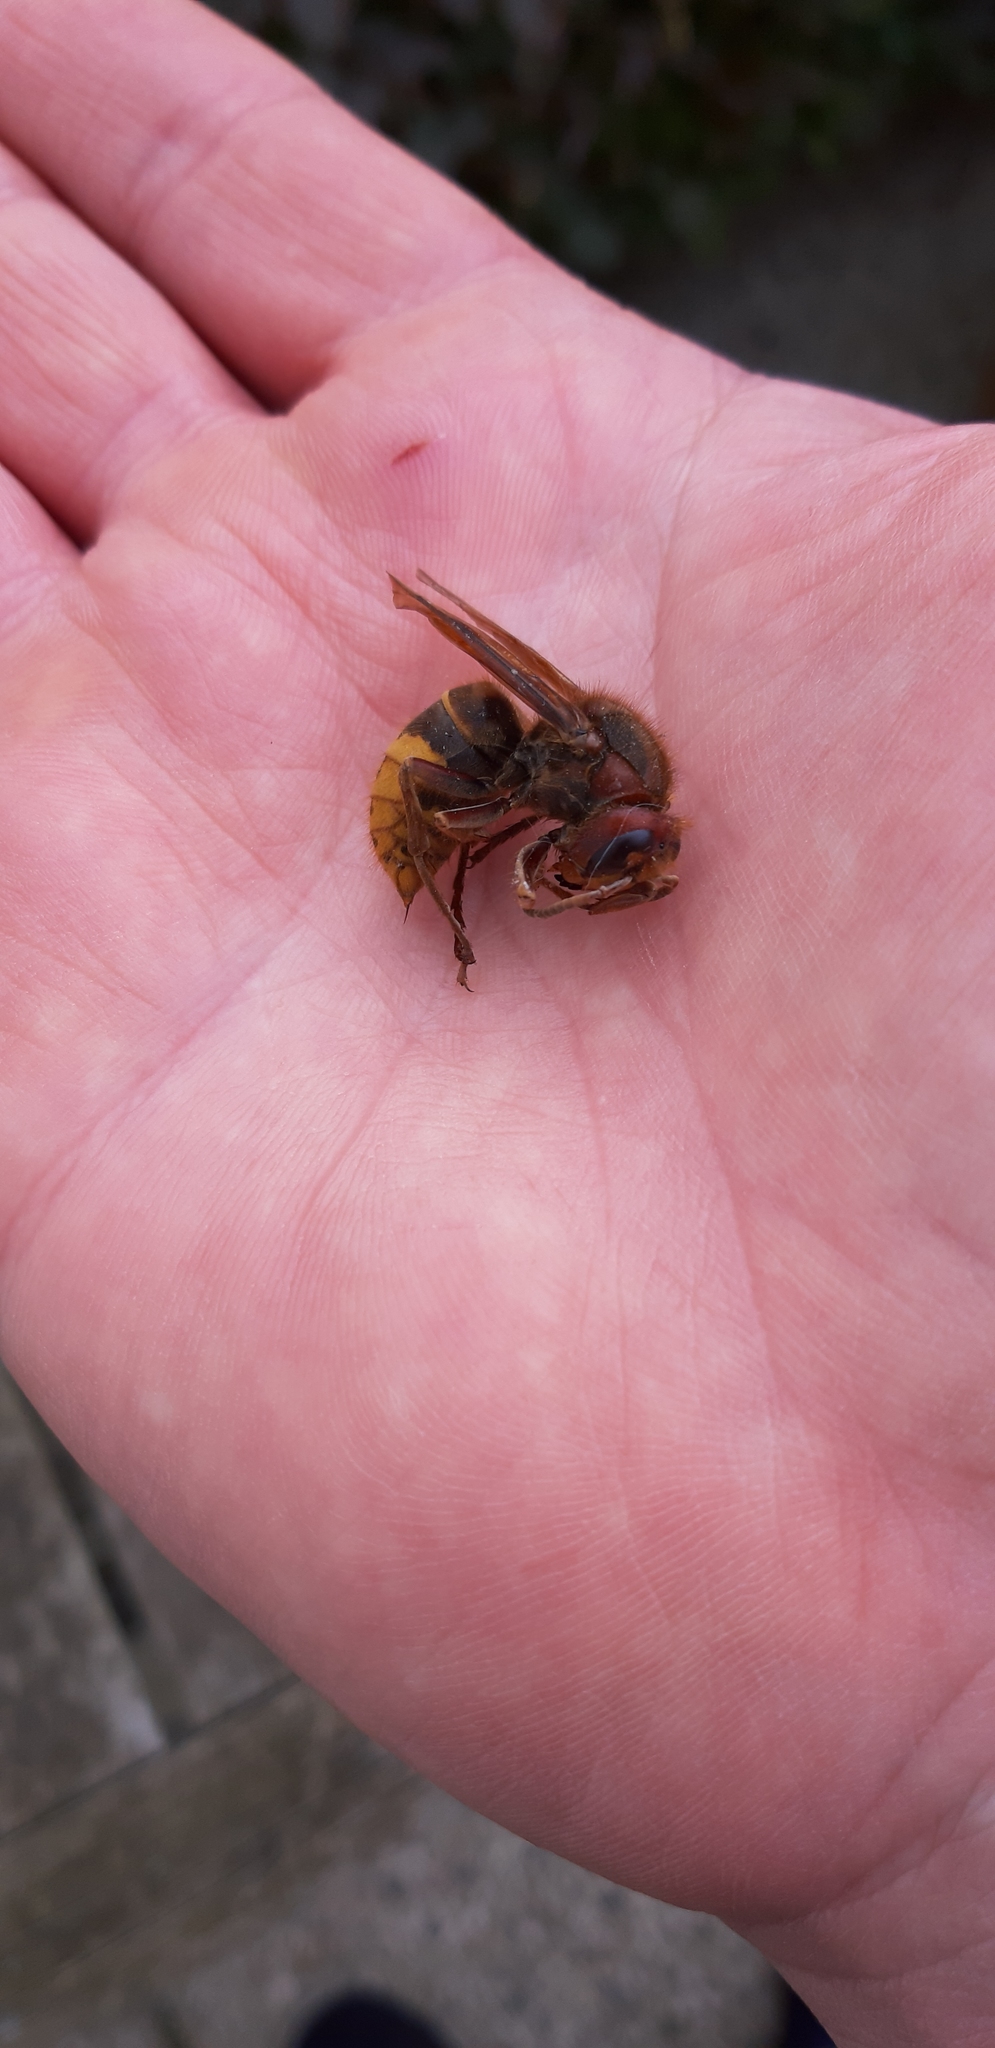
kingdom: Animalia
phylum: Arthropoda
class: Insecta
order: Hymenoptera
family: Vespidae
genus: Vespa
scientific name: Vespa crabro
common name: Hornet
